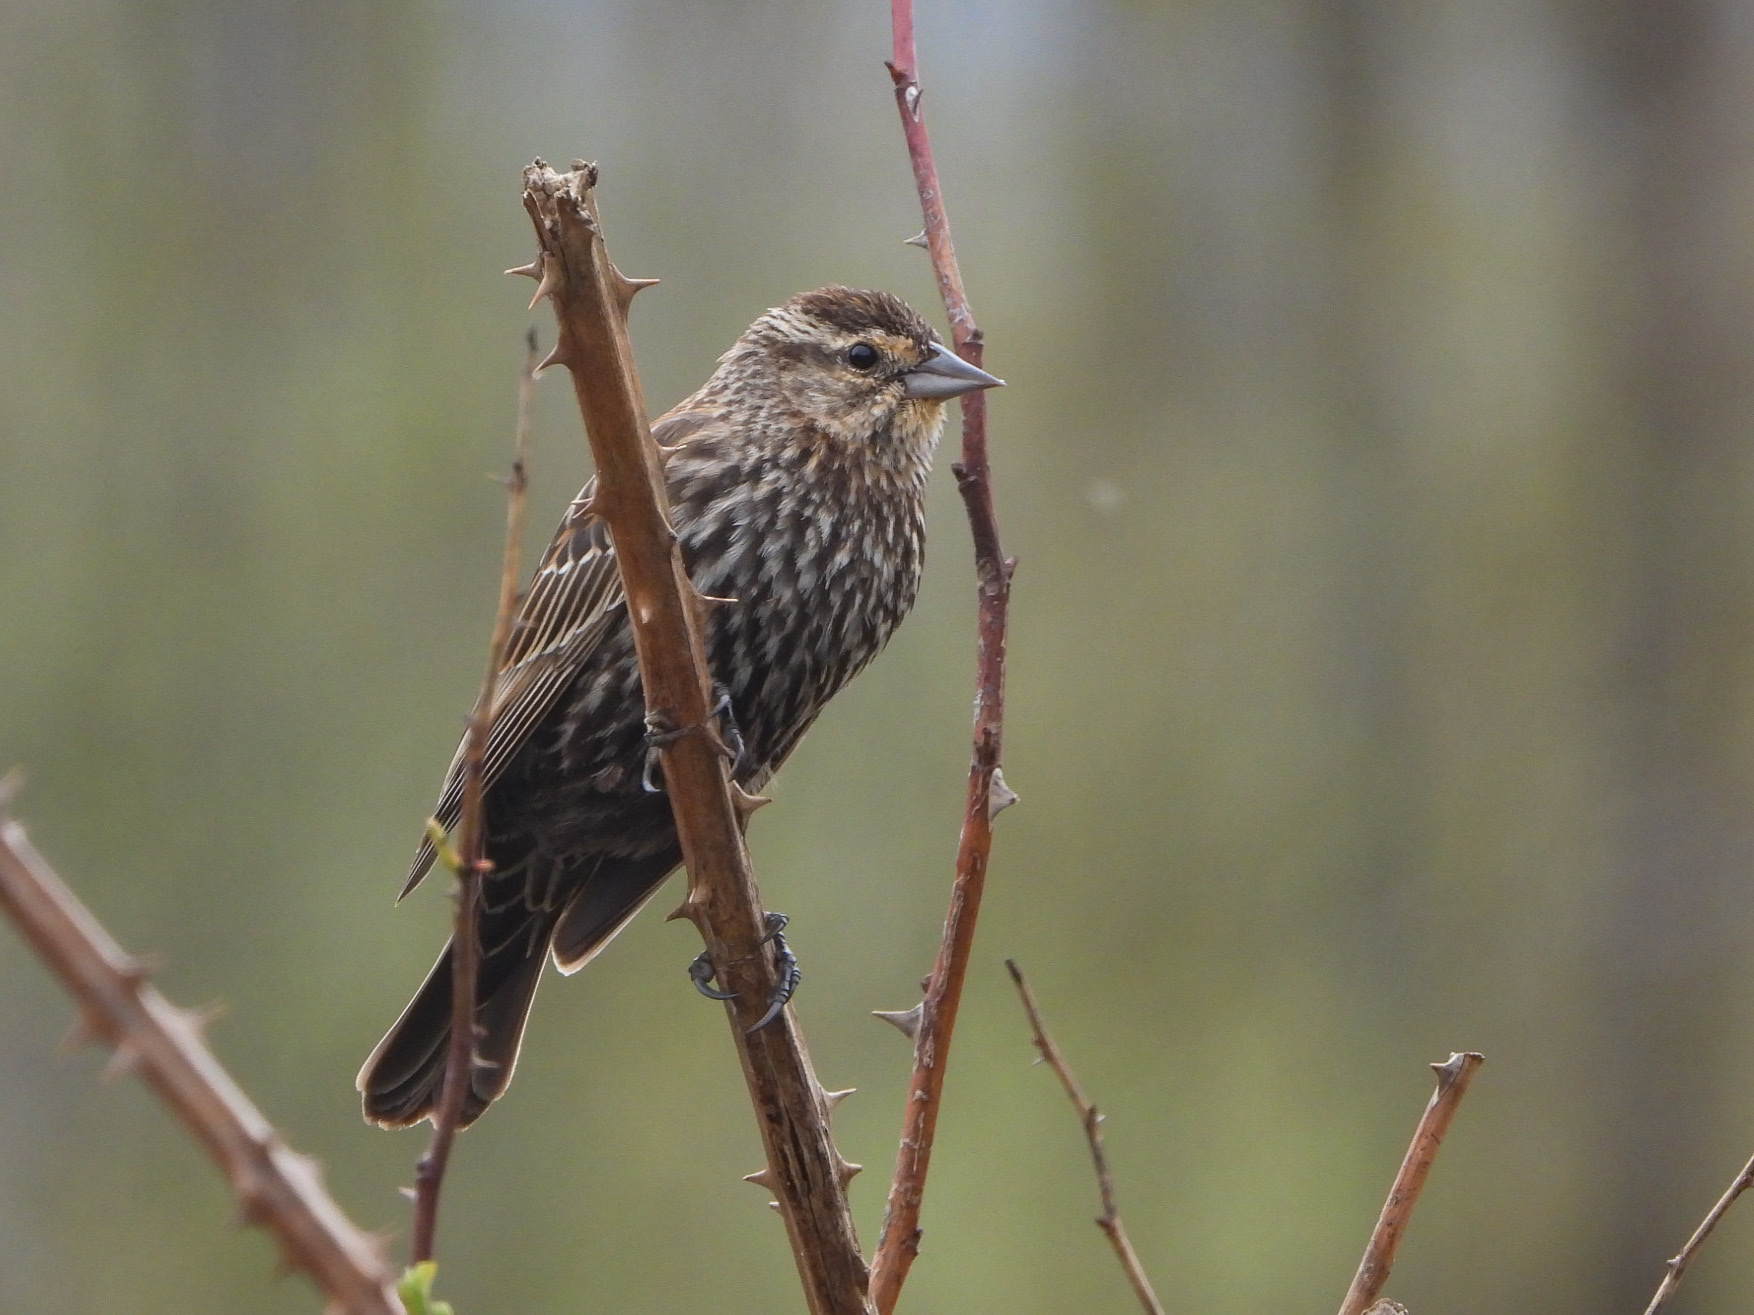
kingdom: Animalia
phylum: Chordata
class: Aves
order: Passeriformes
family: Icteridae
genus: Agelaius
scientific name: Agelaius phoeniceus
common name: Red-winged blackbird
